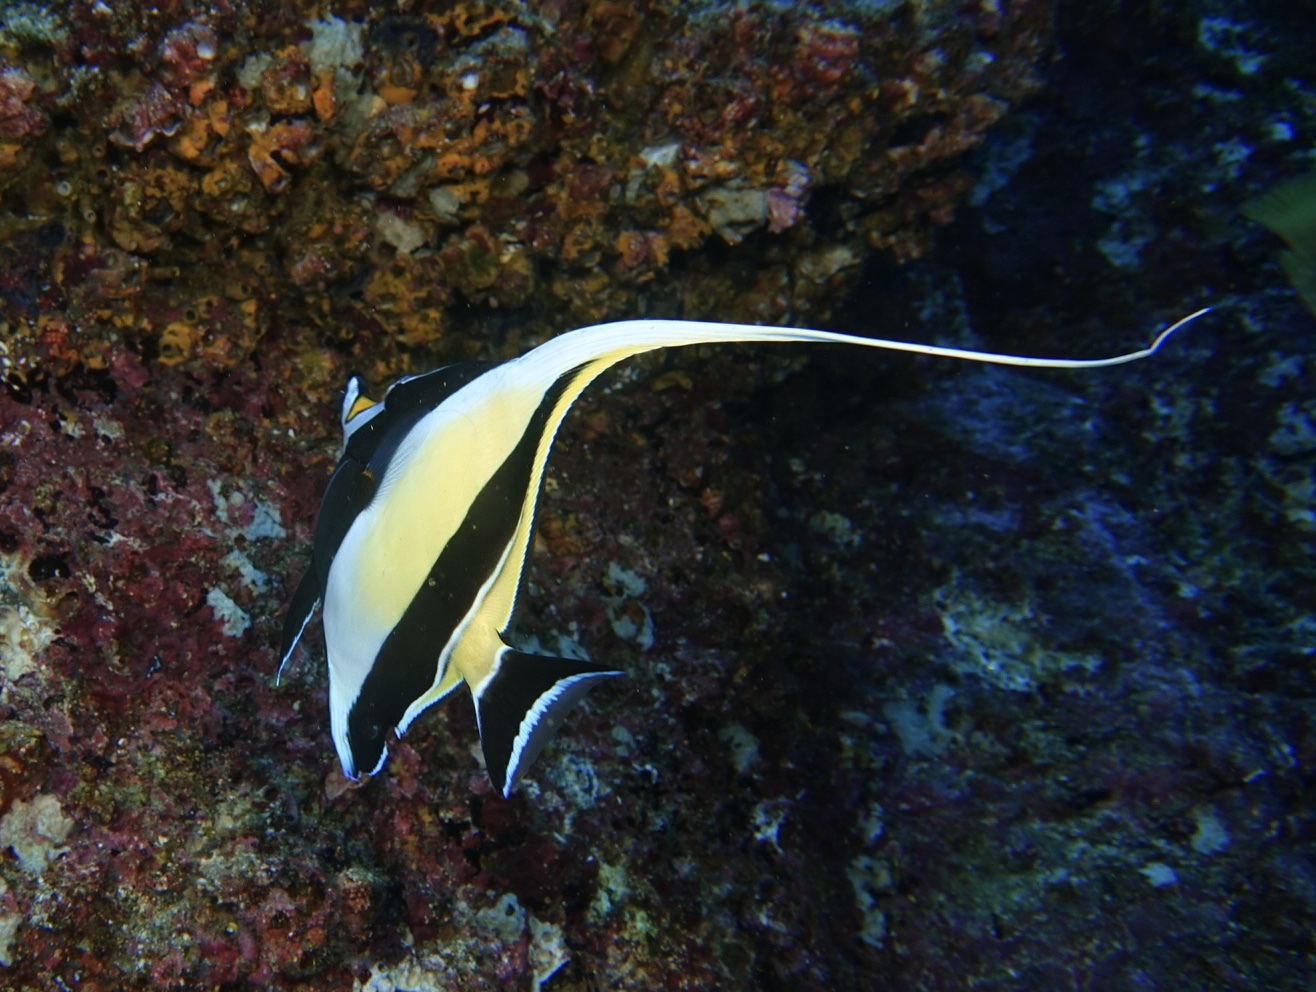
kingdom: Animalia
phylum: Chordata
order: Perciformes
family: Zanclidae
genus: Zanclus
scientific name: Zanclus cornutus
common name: Moorish idol
